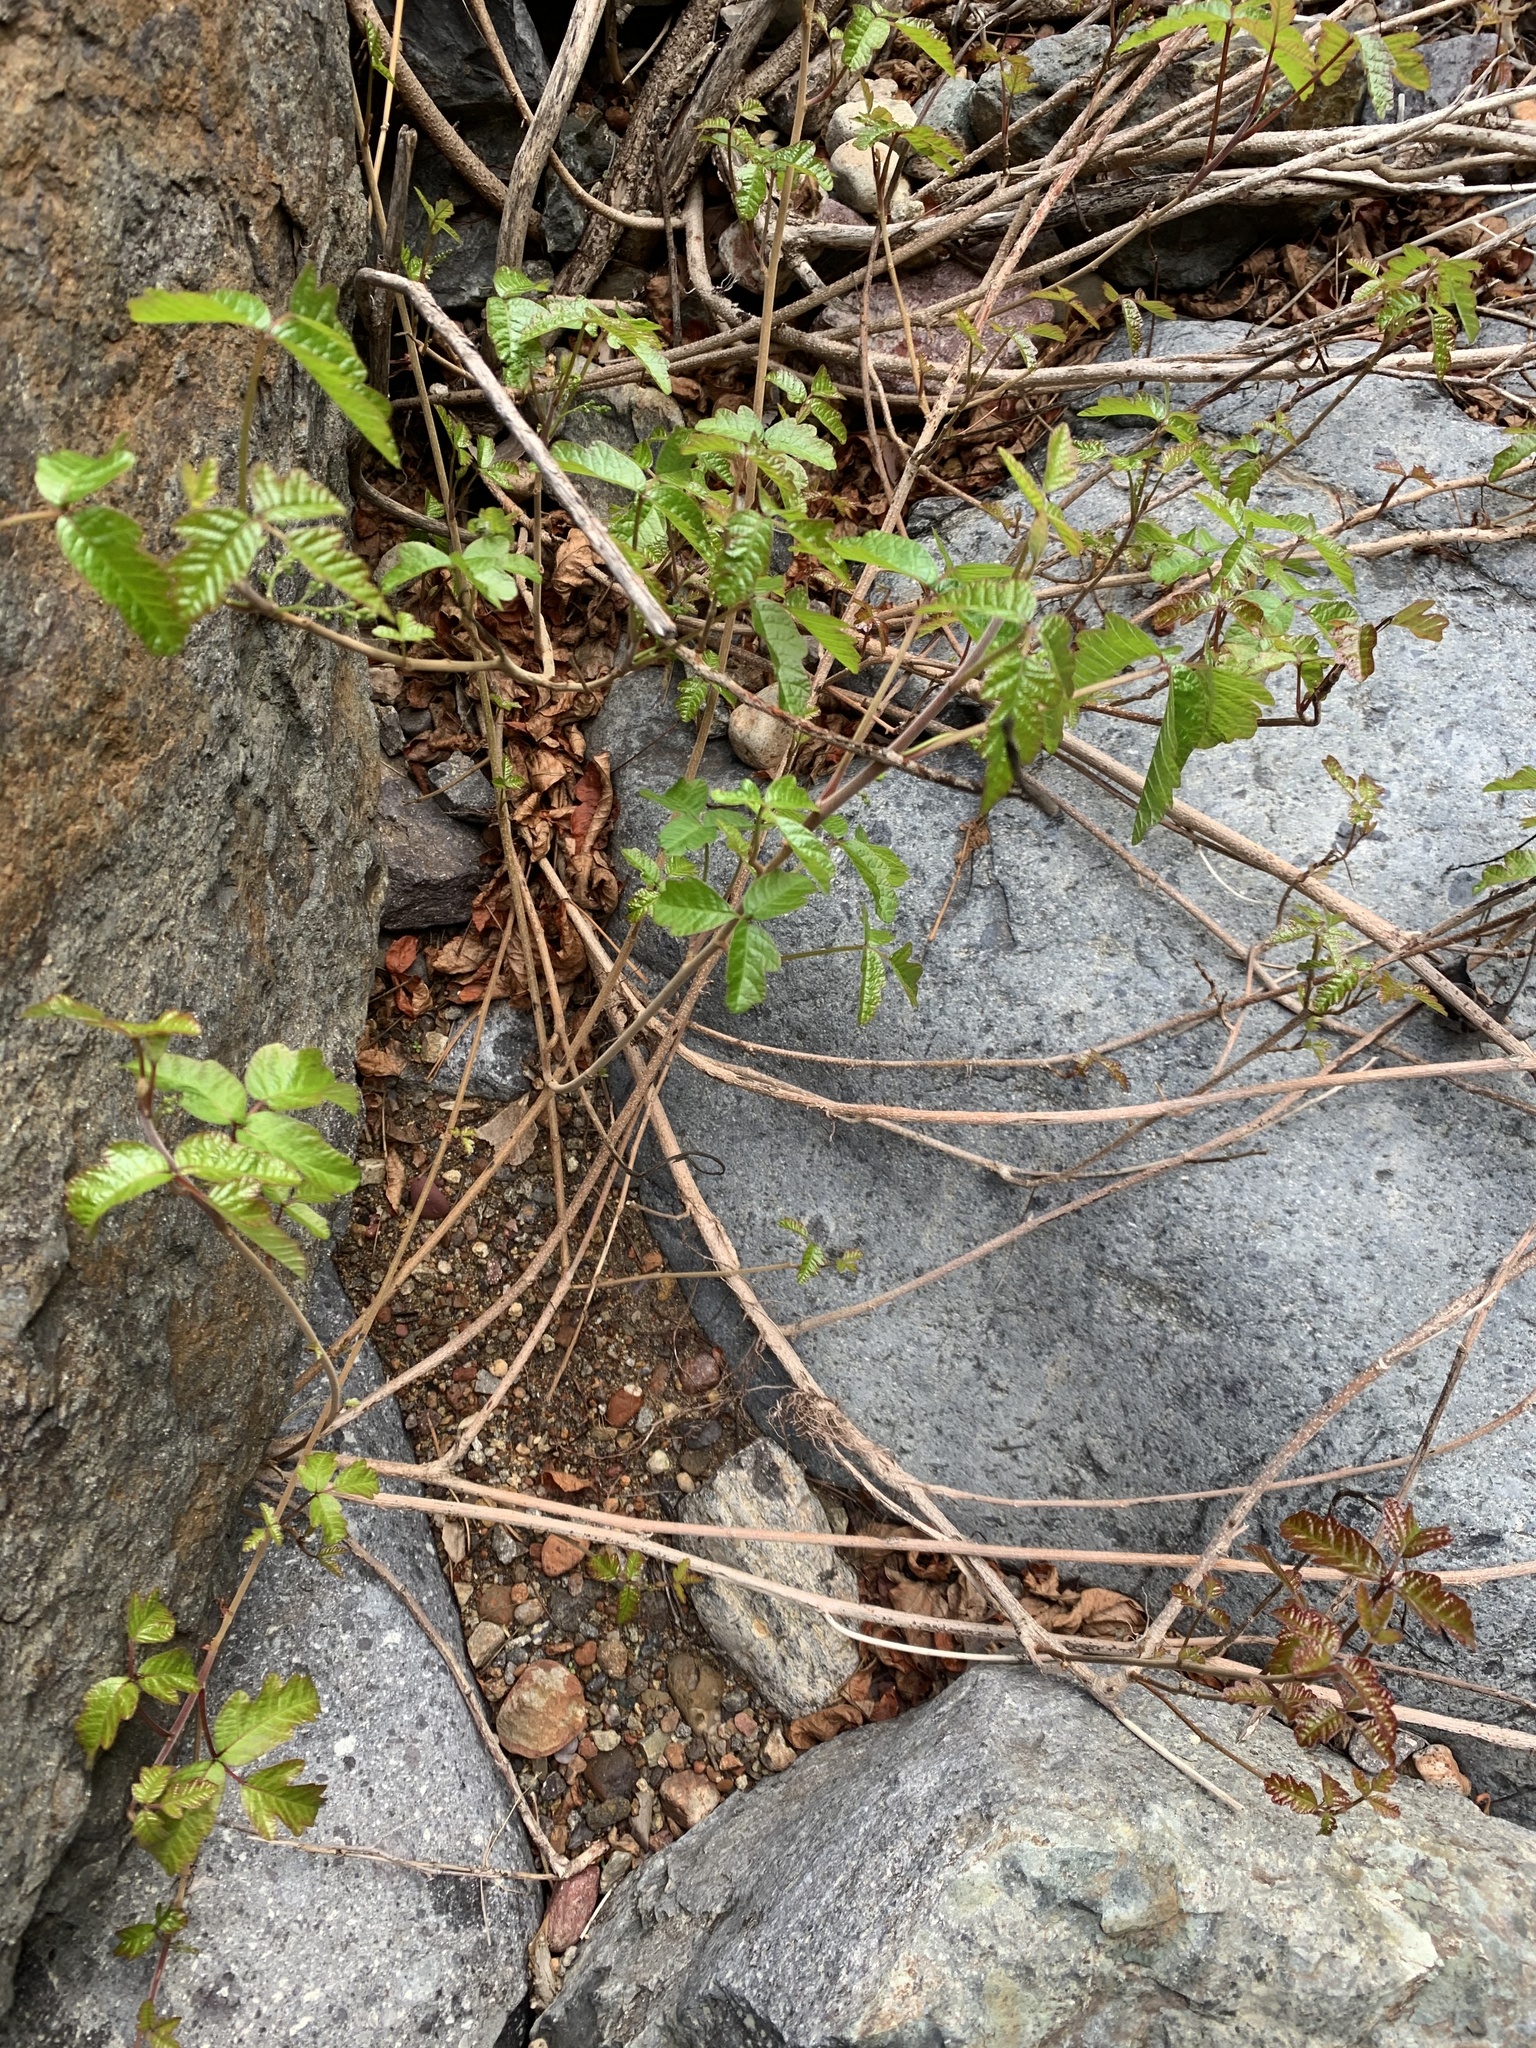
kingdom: Plantae
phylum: Tracheophyta
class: Magnoliopsida
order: Sapindales
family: Anacardiaceae
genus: Toxicodendron
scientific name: Toxicodendron diversilobum
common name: Pacific poison-oak
